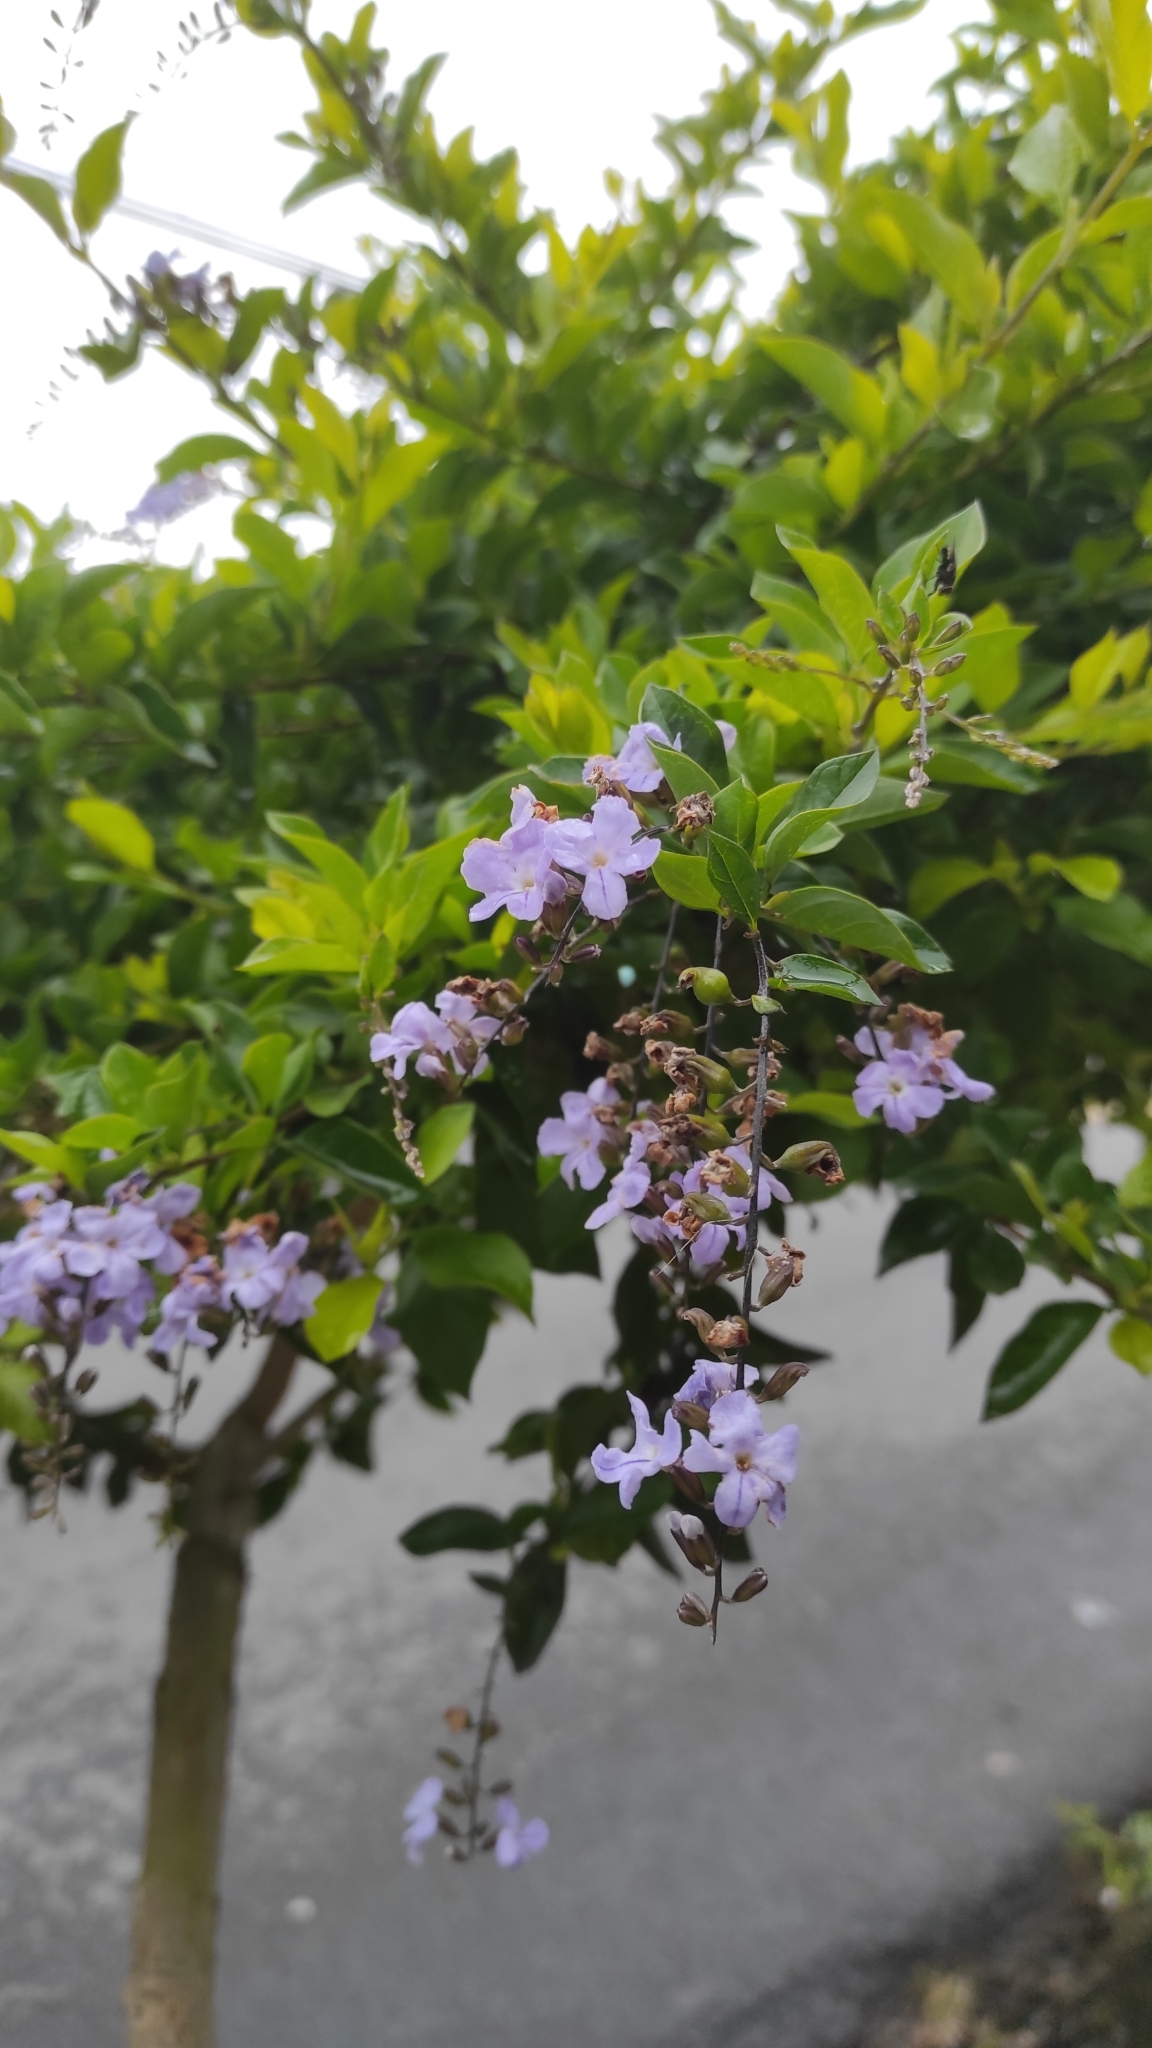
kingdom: Plantae
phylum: Tracheophyta
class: Magnoliopsida
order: Lamiales
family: Verbenaceae
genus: Duranta
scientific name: Duranta erecta
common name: Golden dewdrops
